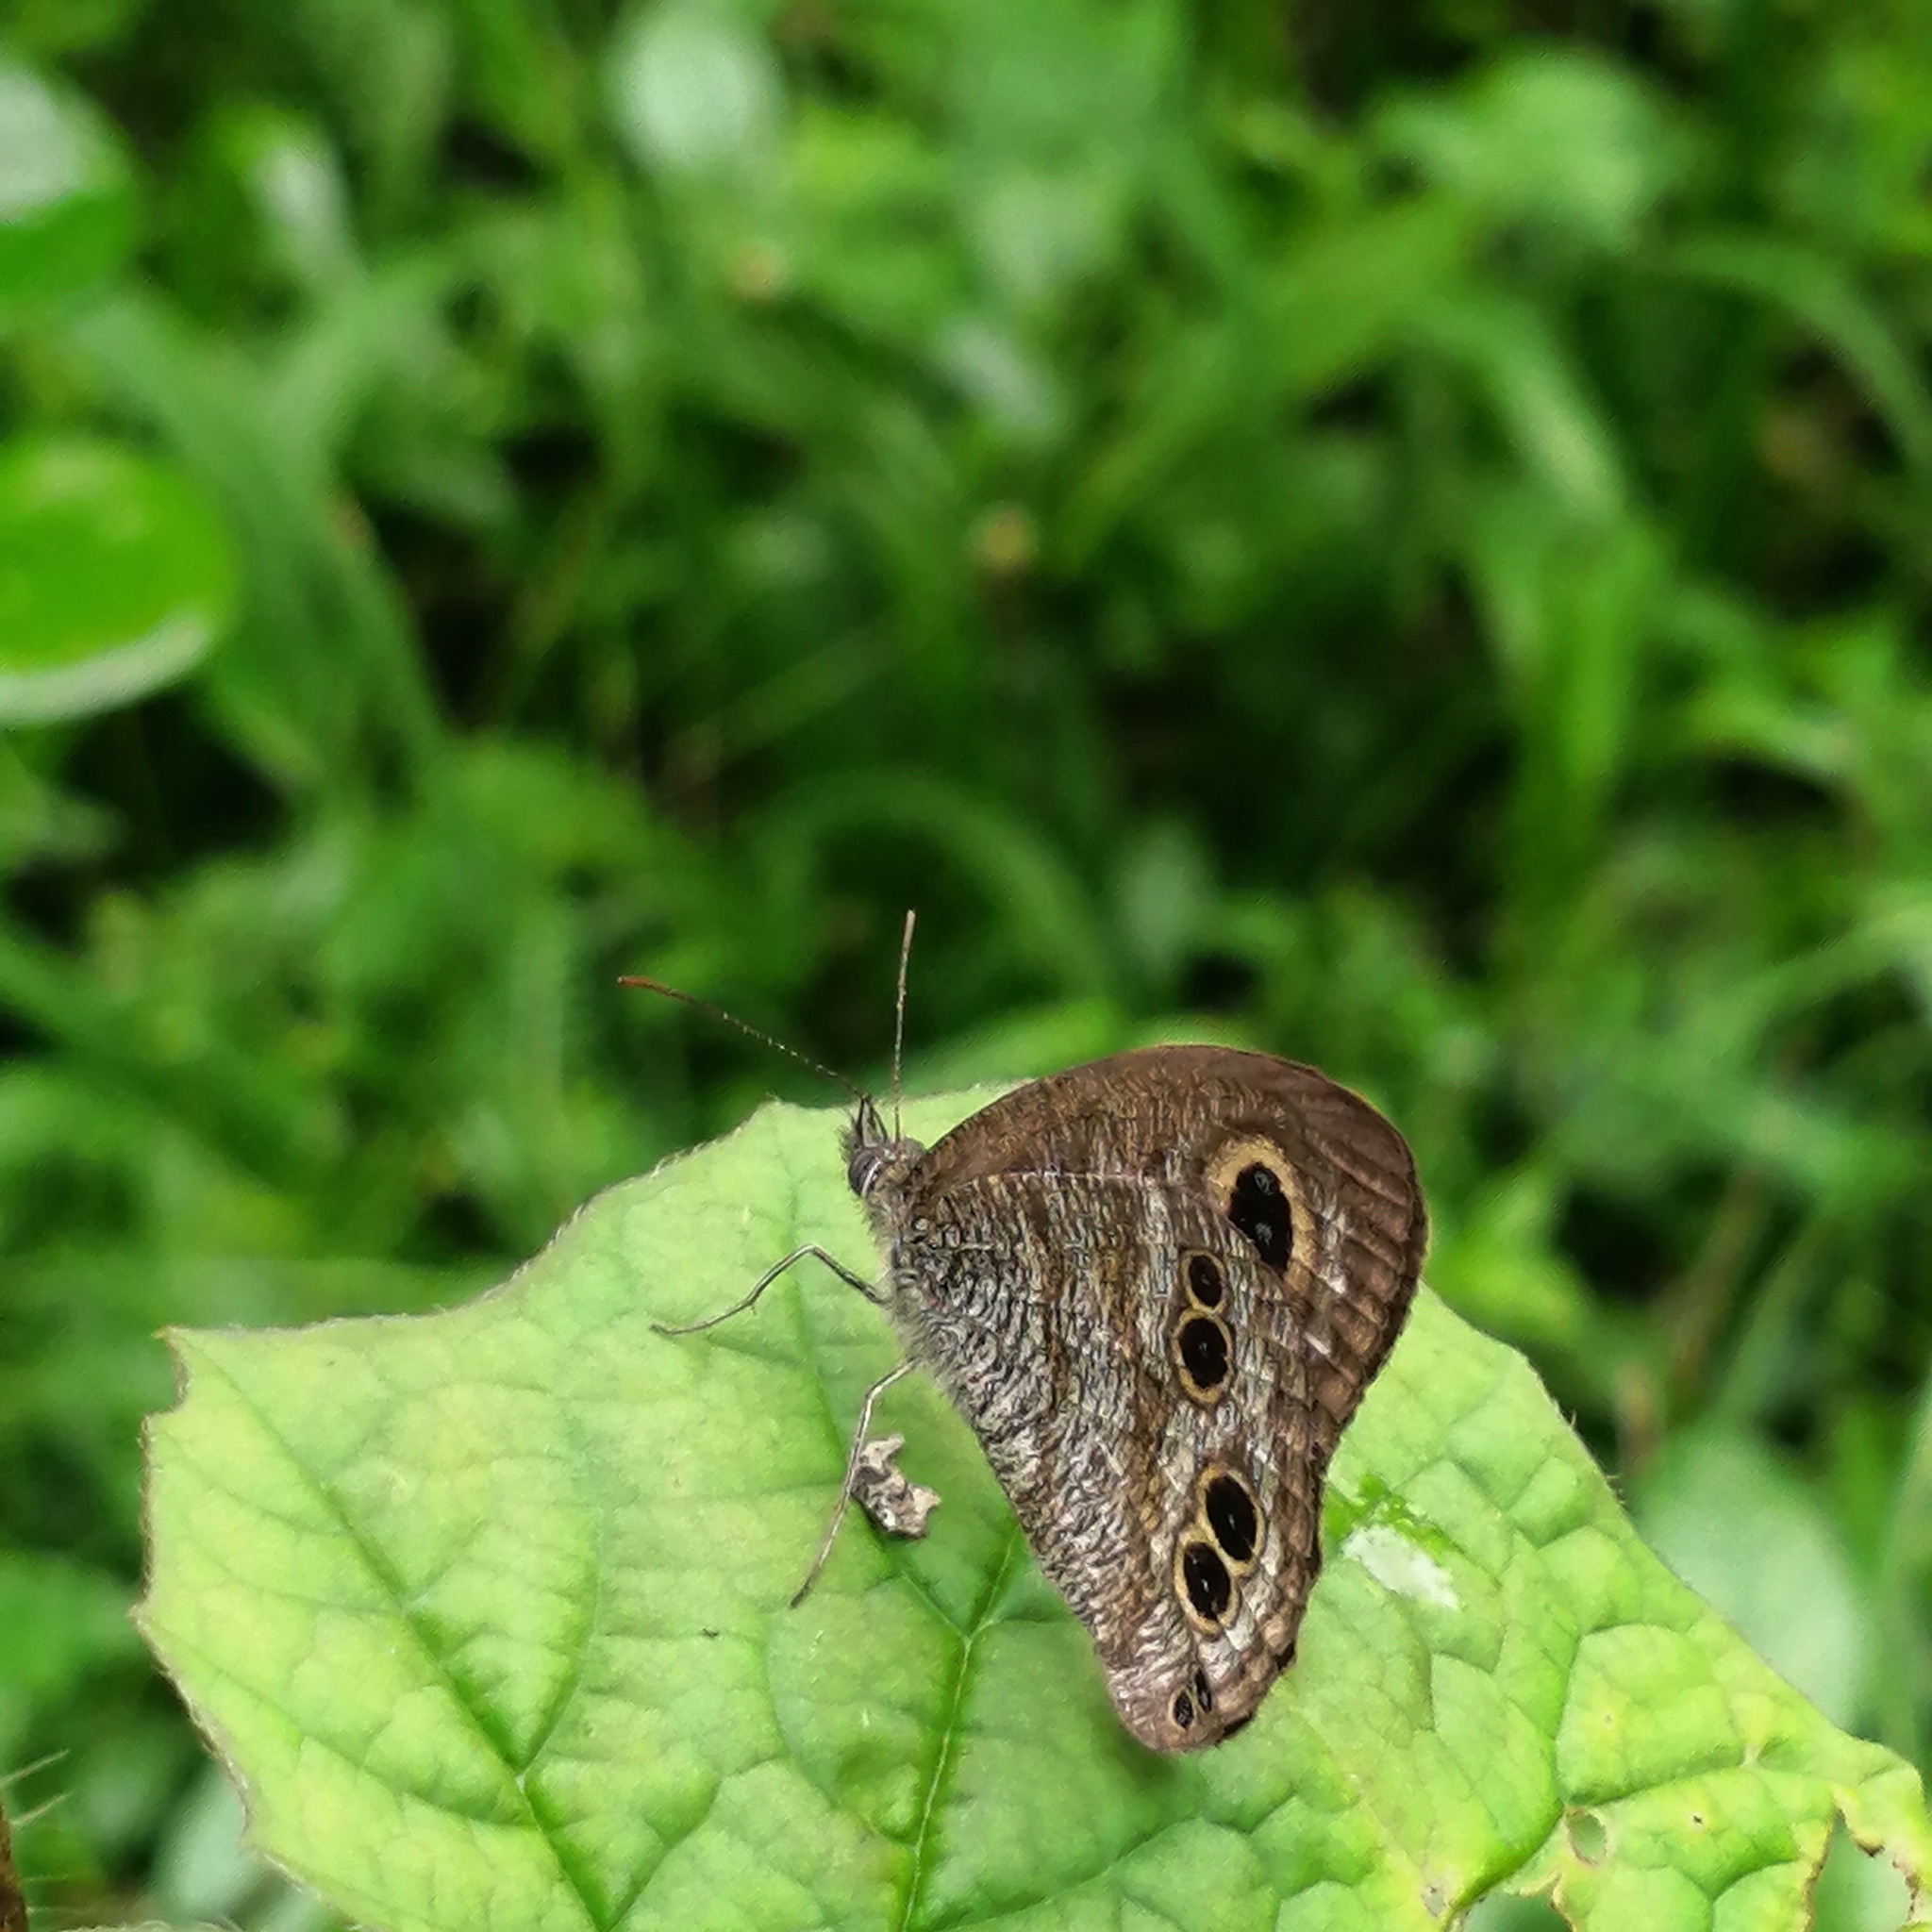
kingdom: Animalia
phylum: Arthropoda
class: Insecta
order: Lepidoptera
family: Nymphalidae
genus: Ypthima
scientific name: Ypthima baldus
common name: Common five-ring
